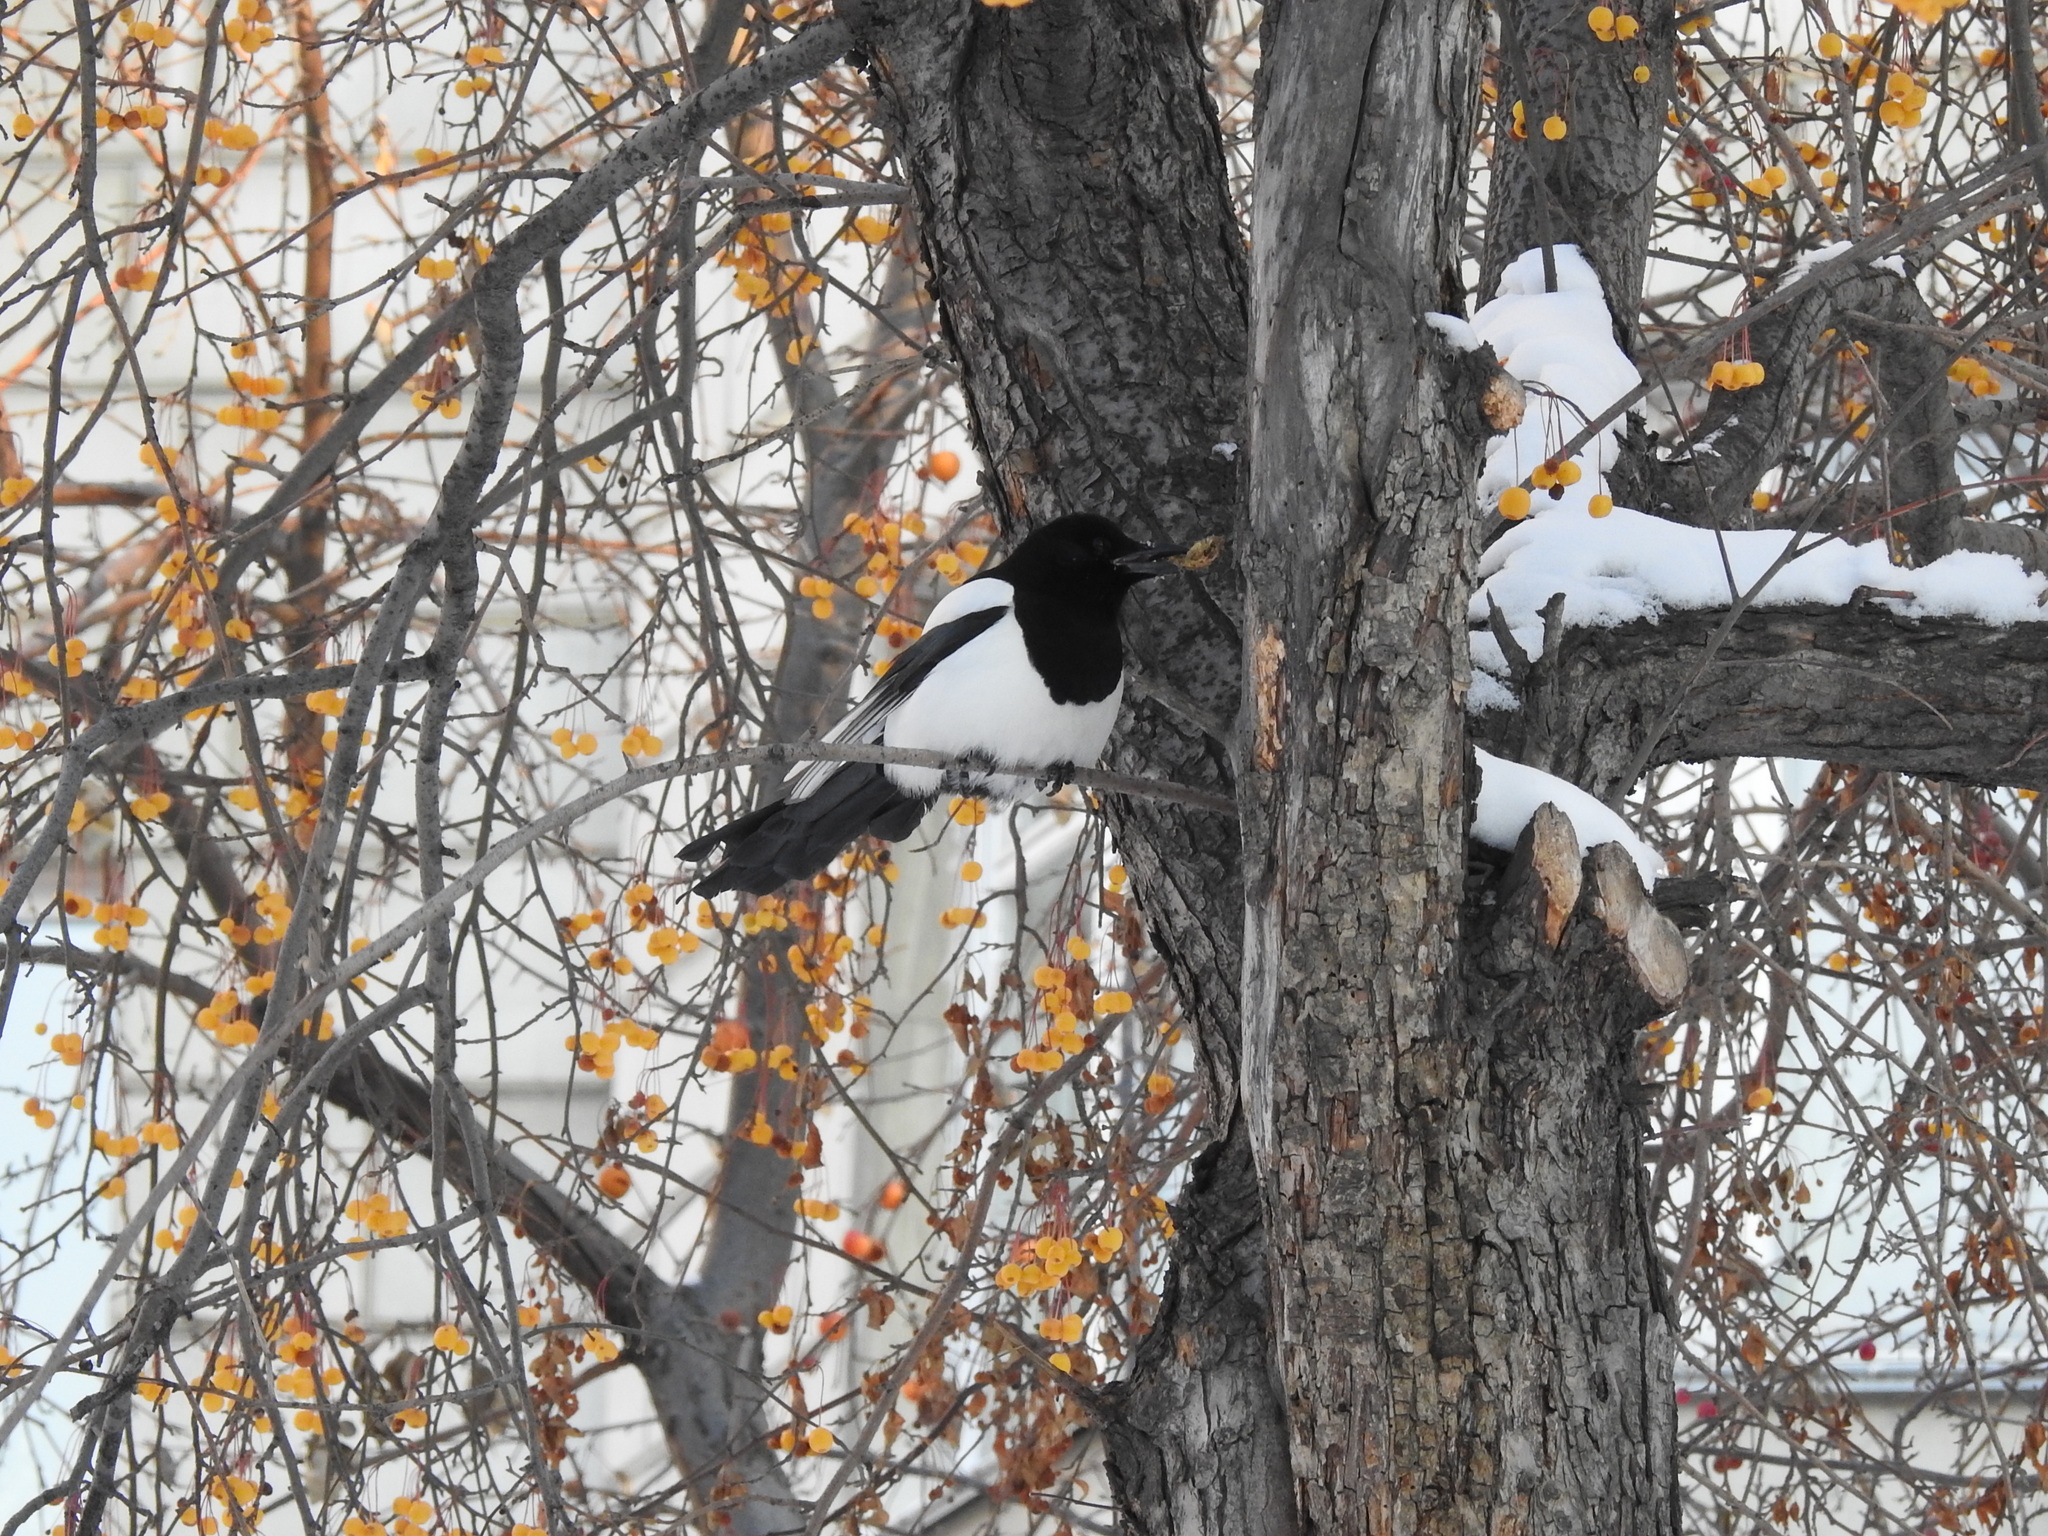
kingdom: Animalia
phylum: Chordata
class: Aves
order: Passeriformes
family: Corvidae
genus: Pica
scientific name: Pica pica
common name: Eurasian magpie
